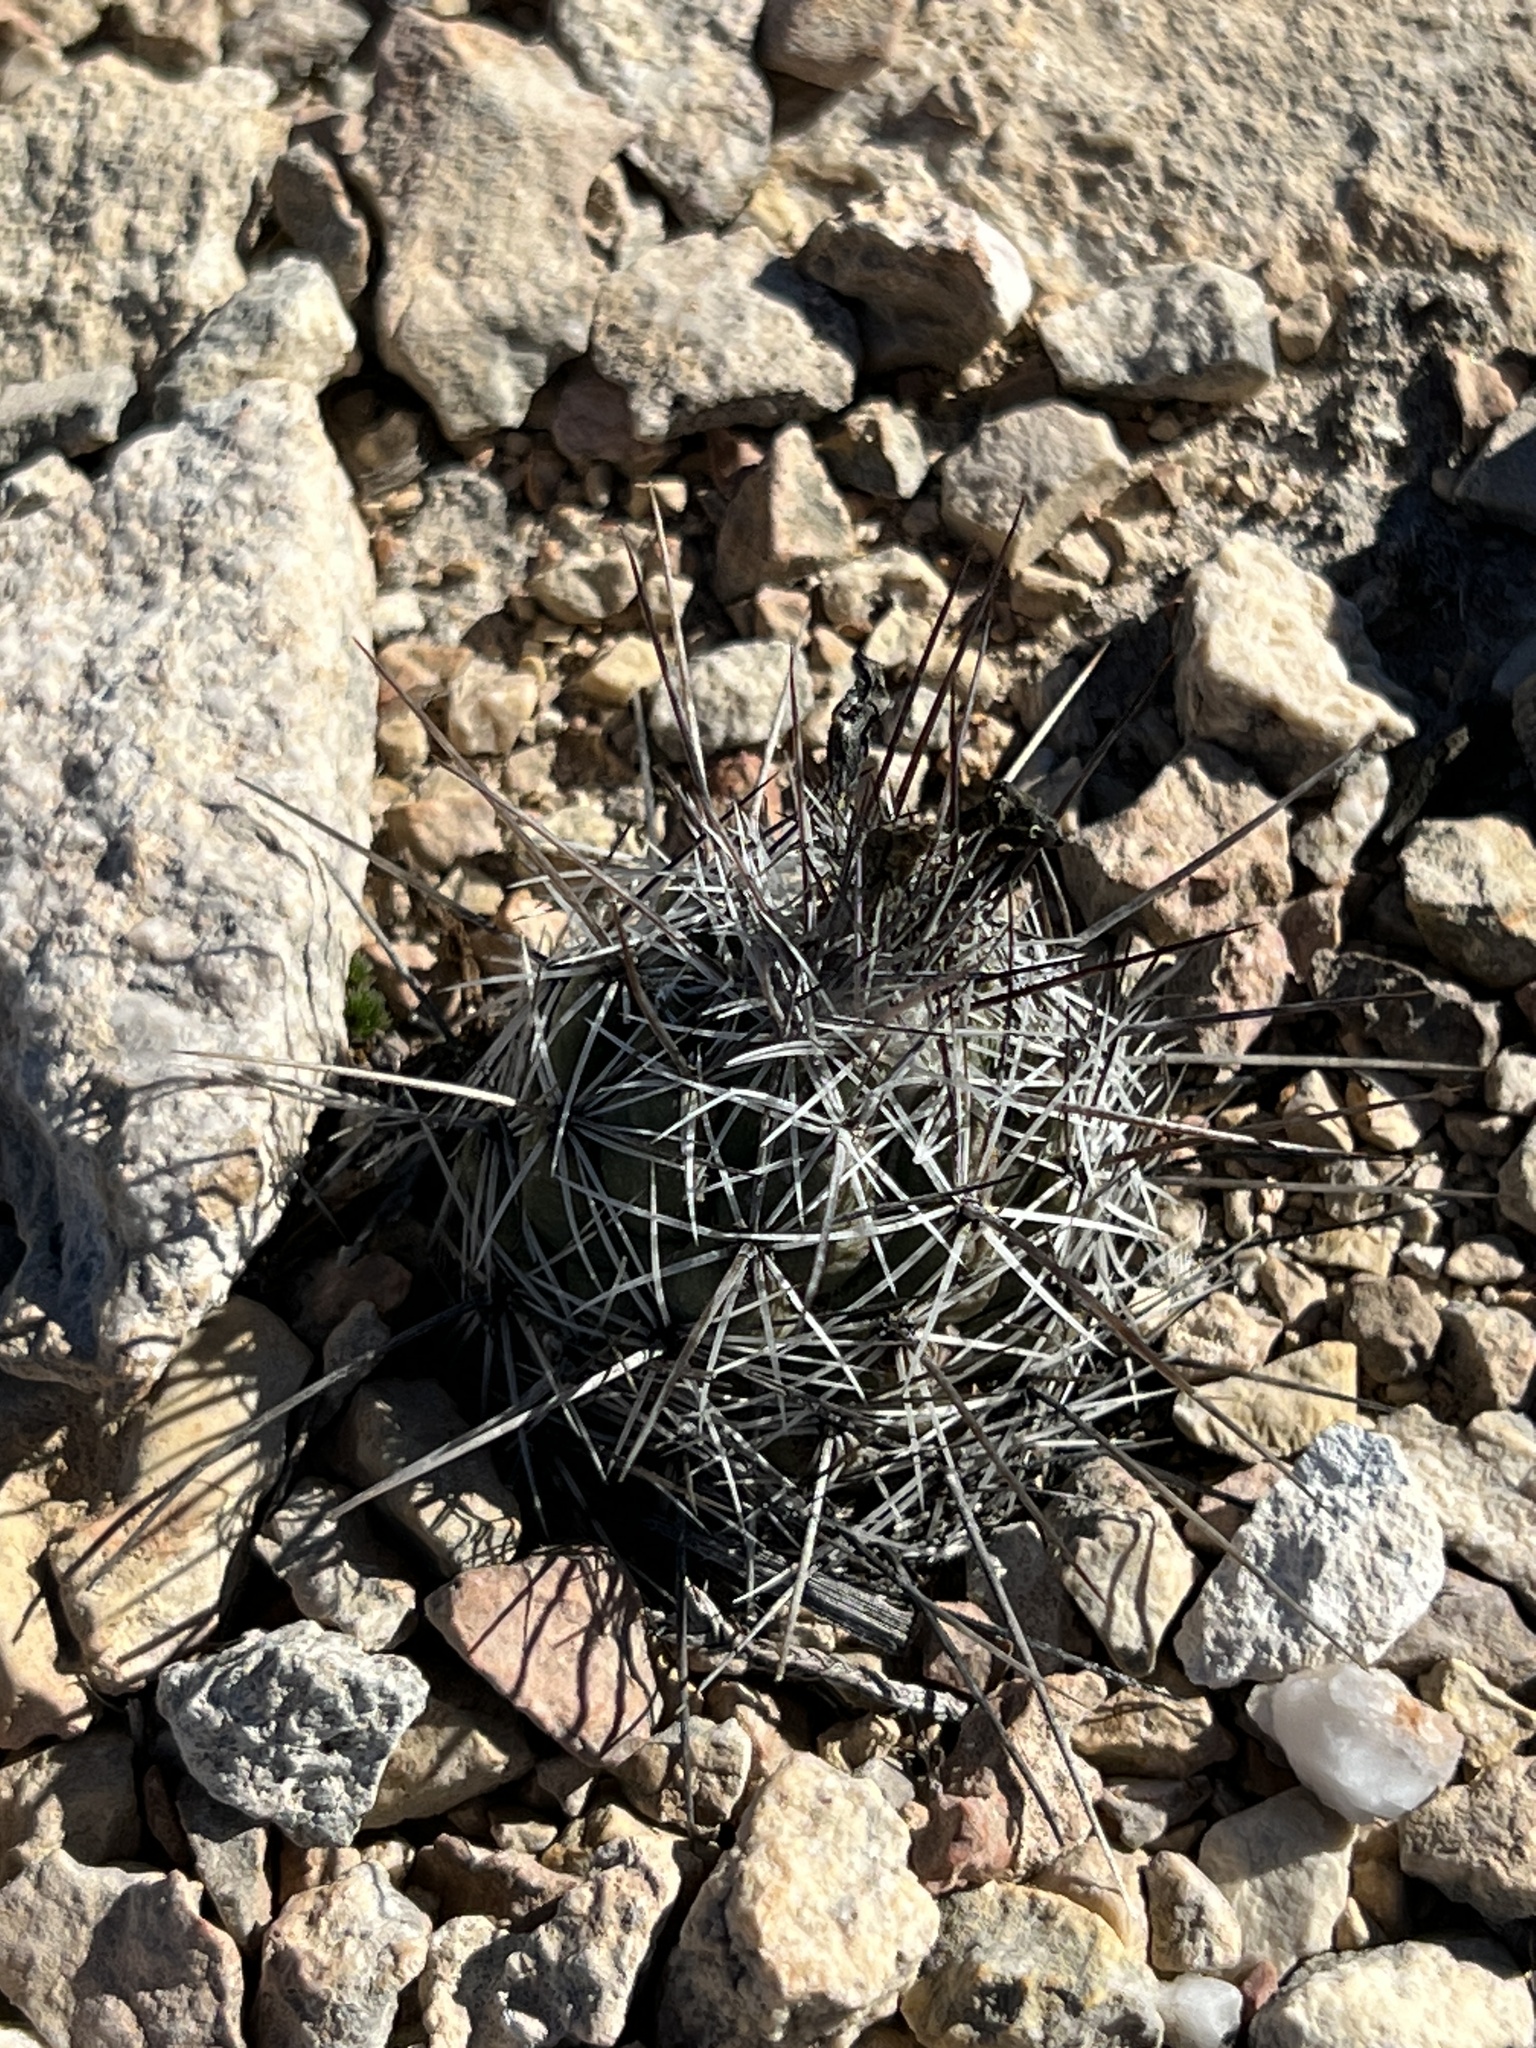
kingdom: Plantae
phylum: Tracheophyta
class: Magnoliopsida
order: Caryophyllales
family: Cactaceae
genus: Cochemiea
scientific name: Cochemiea conoidea
